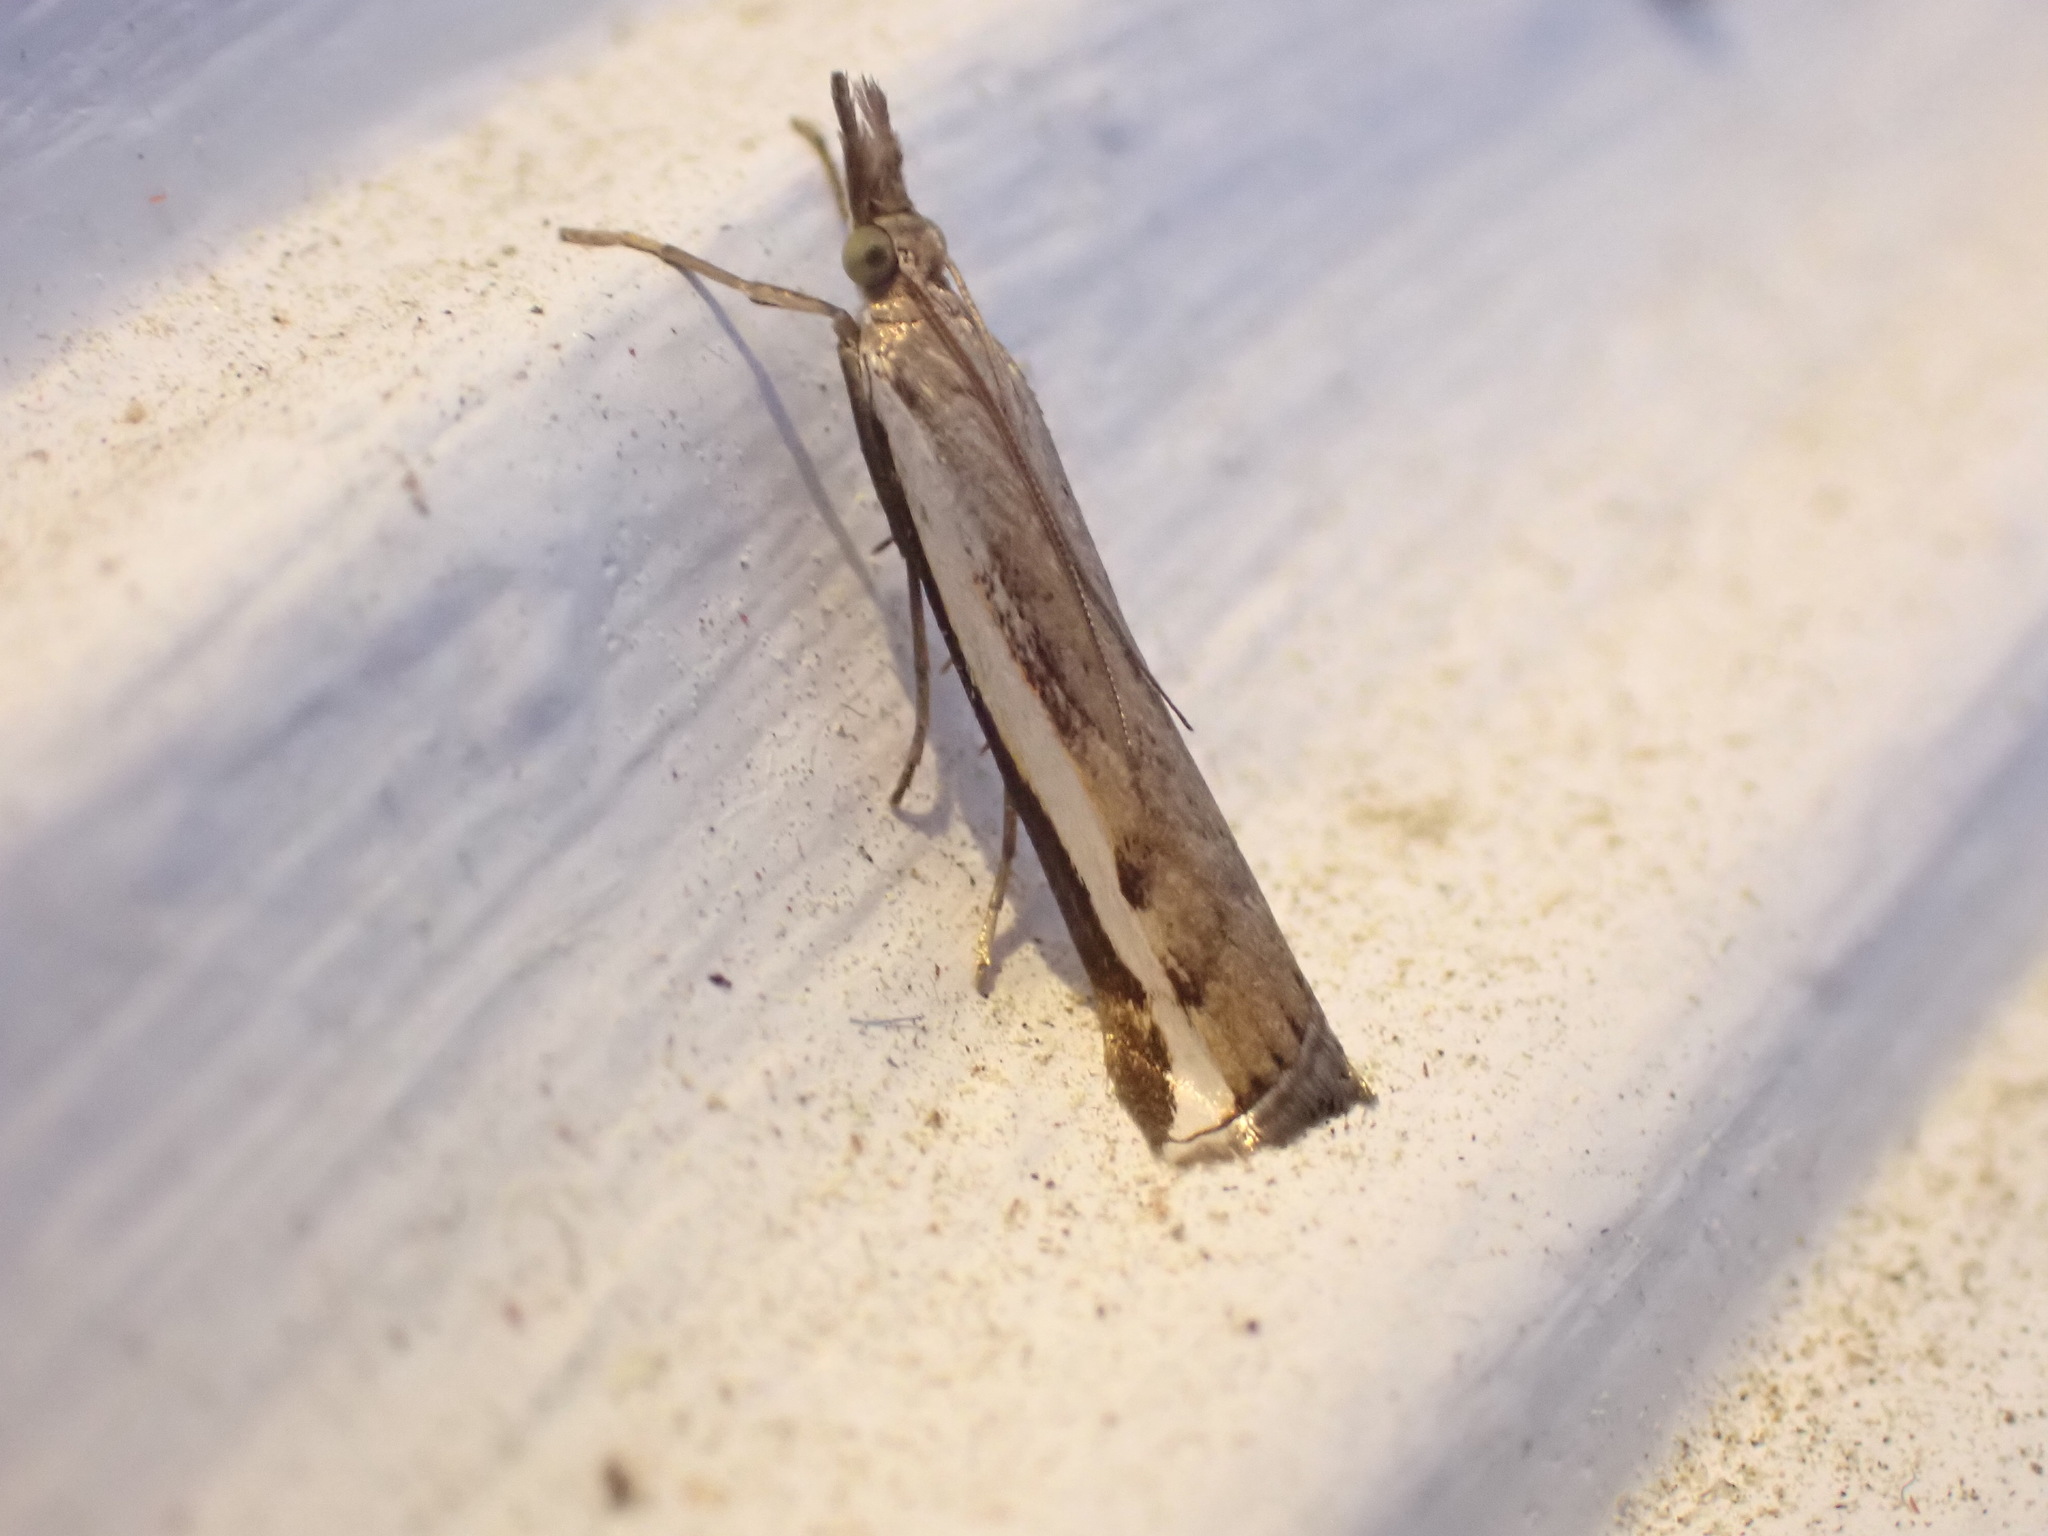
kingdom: Animalia
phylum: Arthropoda
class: Insecta
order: Lepidoptera
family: Crambidae
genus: Orocrambus
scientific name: Orocrambus flexuosellus
